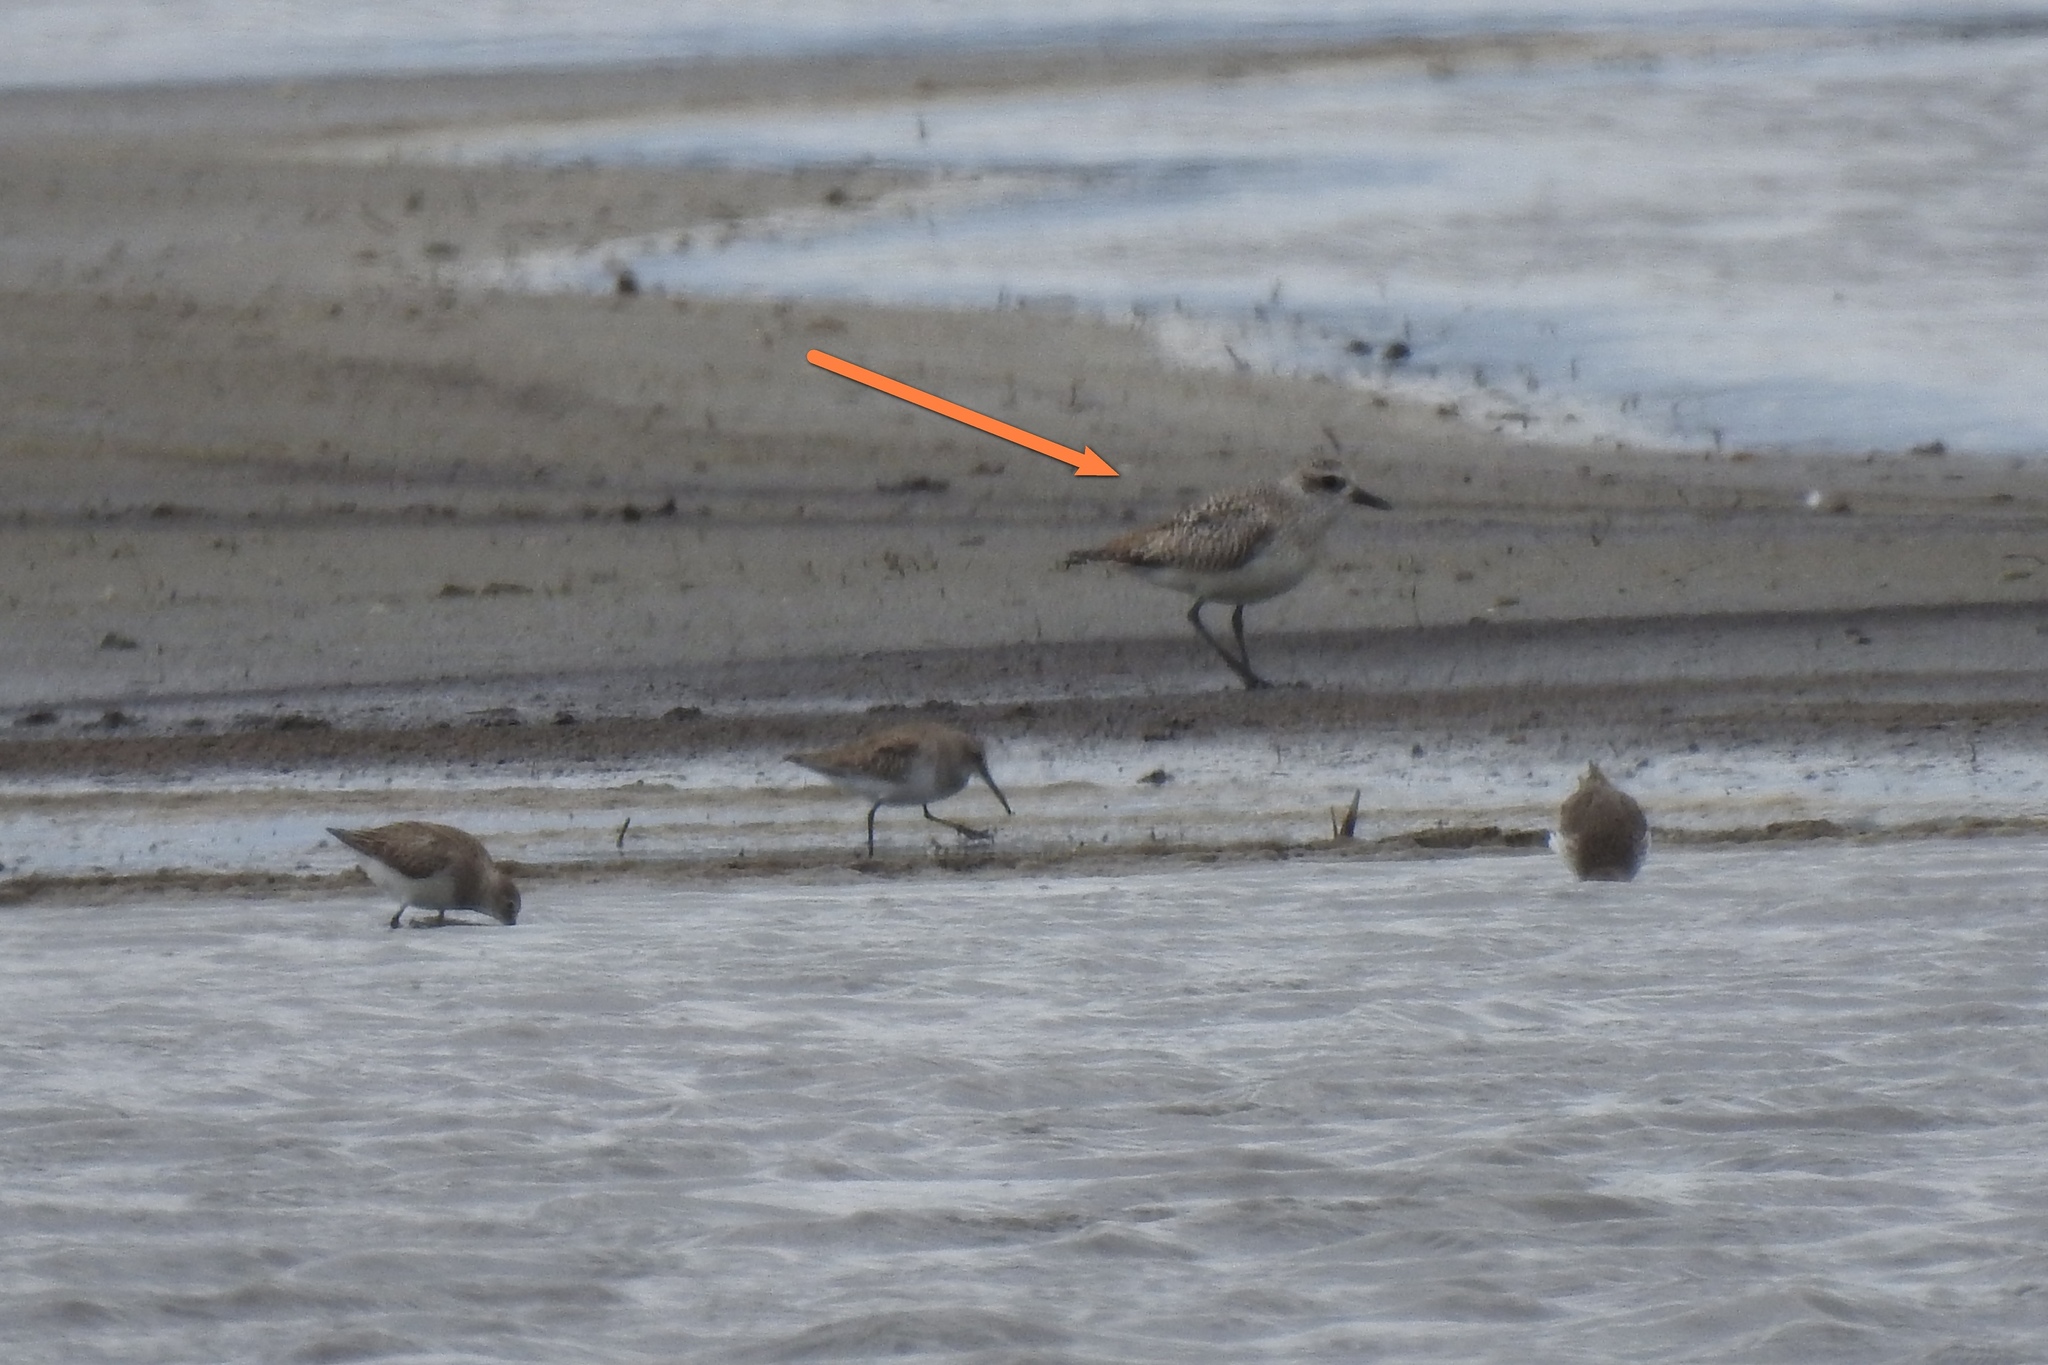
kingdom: Animalia
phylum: Chordata
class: Aves
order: Charadriiformes
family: Charadriidae
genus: Pluvialis
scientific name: Pluvialis squatarola
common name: Grey plover
